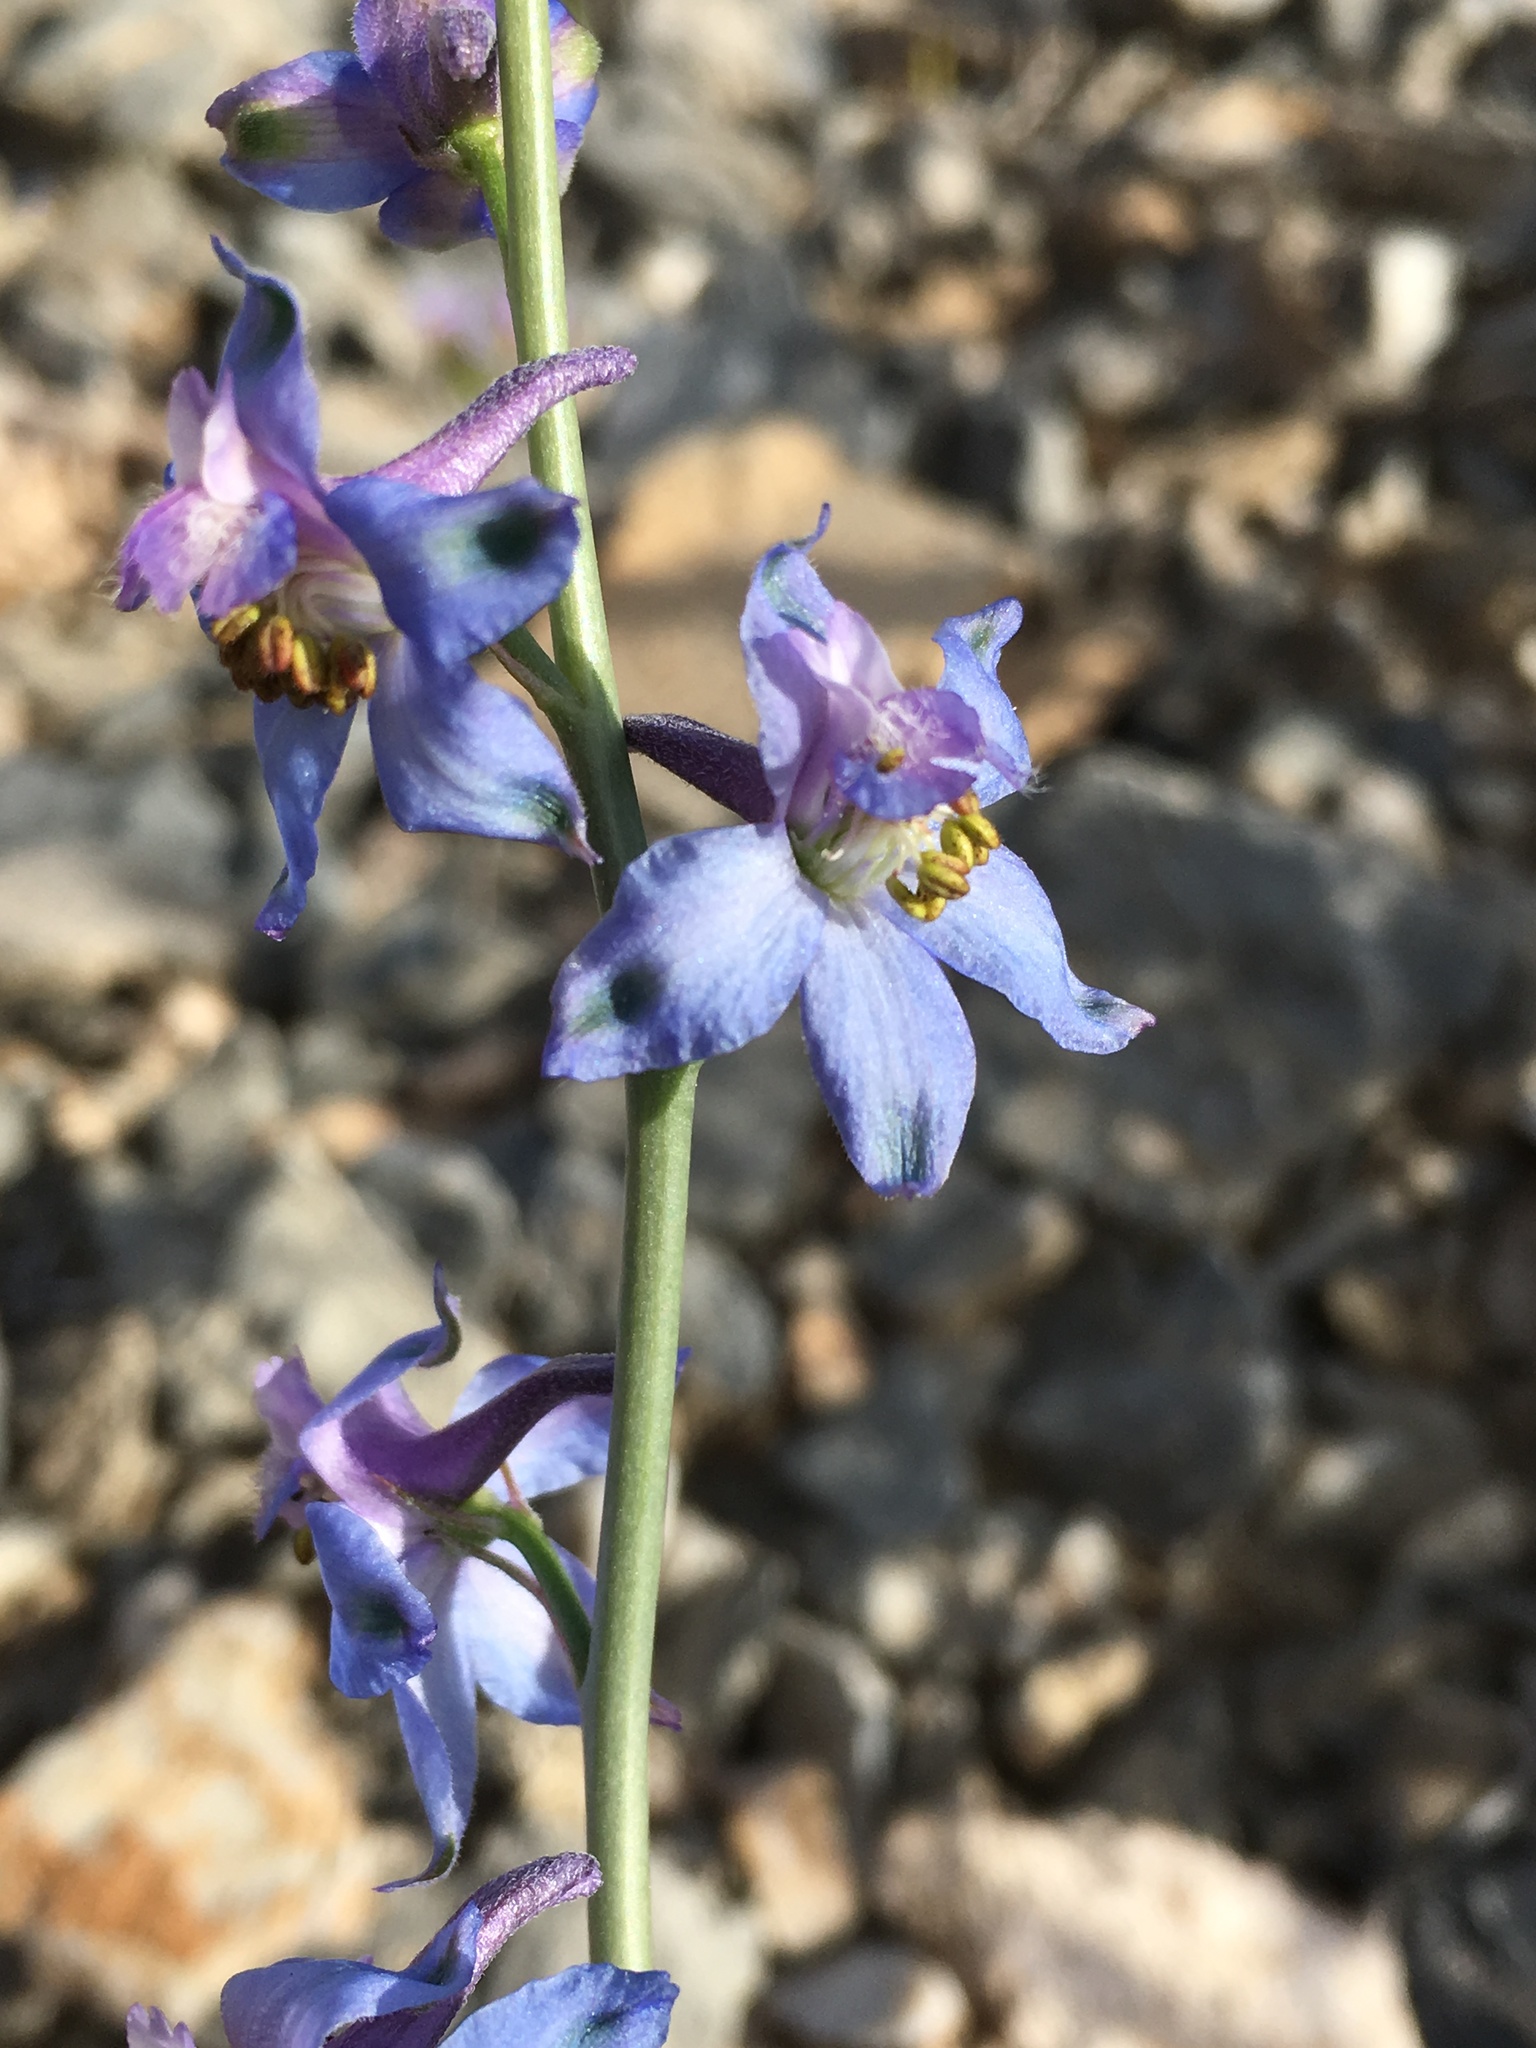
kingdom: Plantae
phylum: Tracheophyta
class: Magnoliopsida
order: Ranunculales
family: Ranunculaceae
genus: Delphinium
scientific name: Delphinium parishii
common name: Apache larkspur
